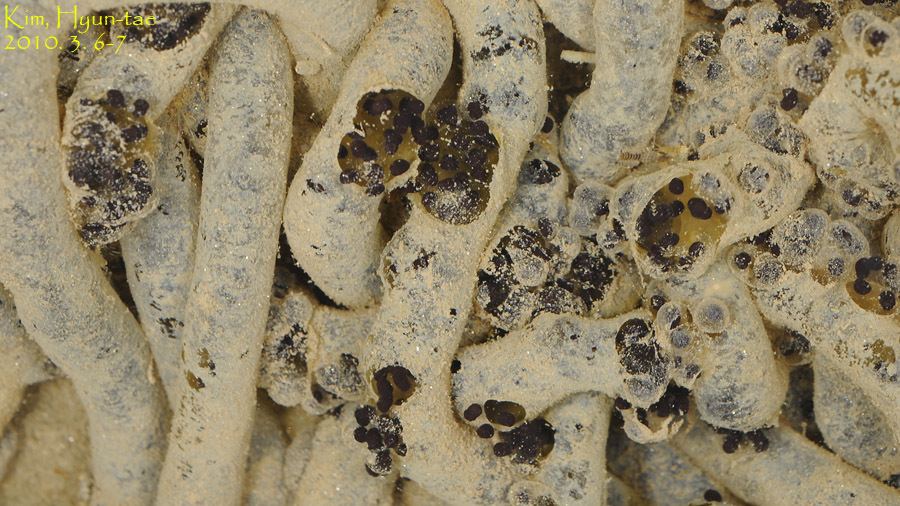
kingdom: Animalia
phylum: Chordata
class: Amphibia
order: Anura
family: Bufonidae
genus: Bufo
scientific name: Bufo gargarizans
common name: Asiatic toad
